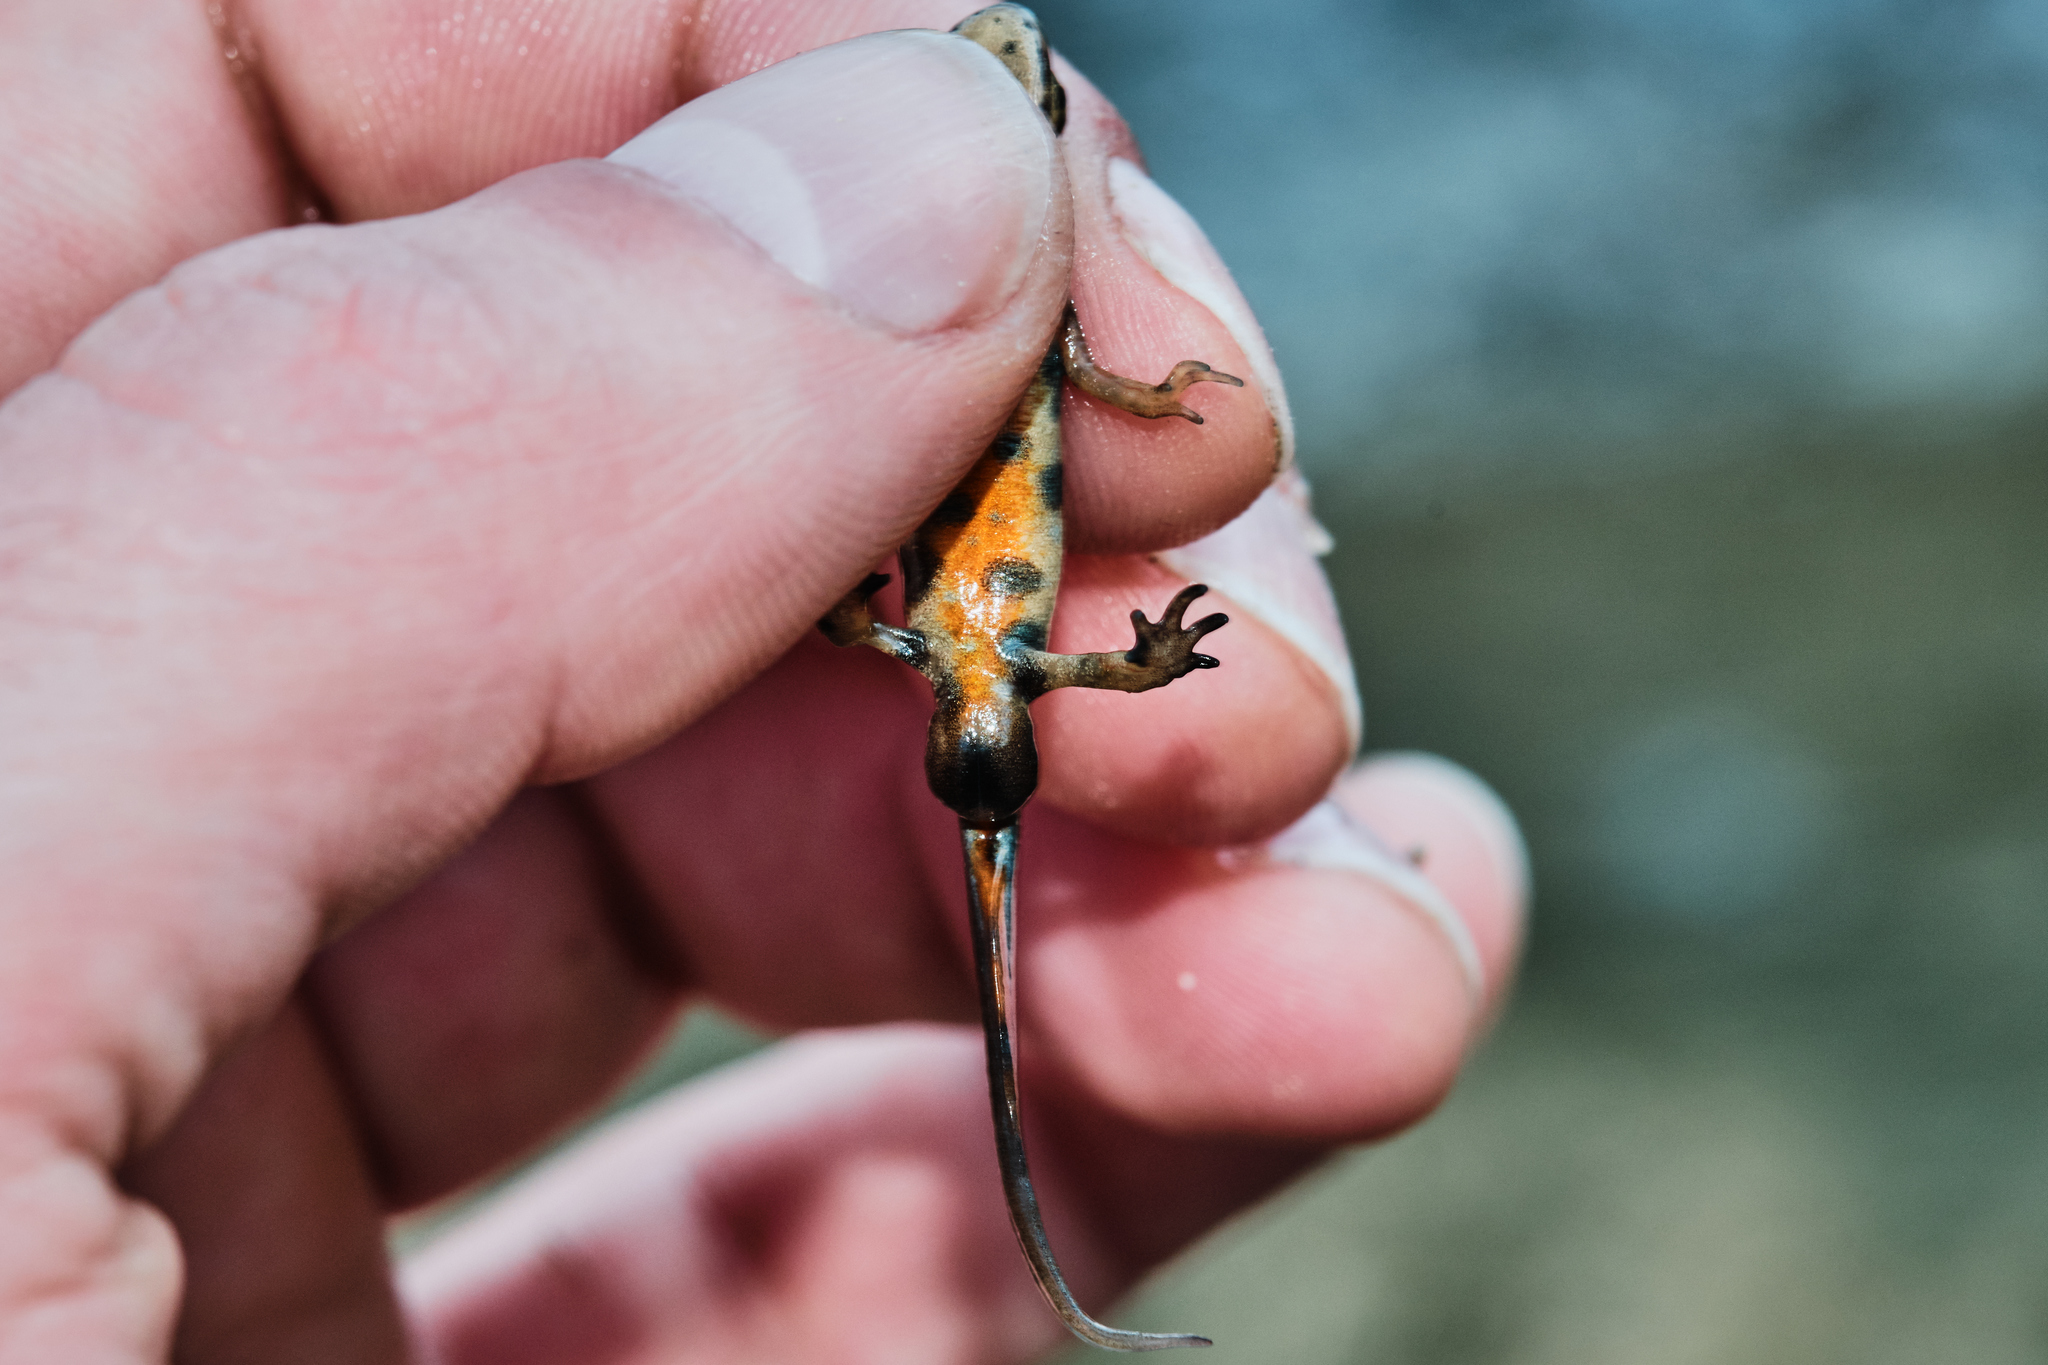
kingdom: Animalia
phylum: Chordata
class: Amphibia
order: Caudata
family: Salamandridae
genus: Lissotriton
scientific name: Lissotriton lantzi
